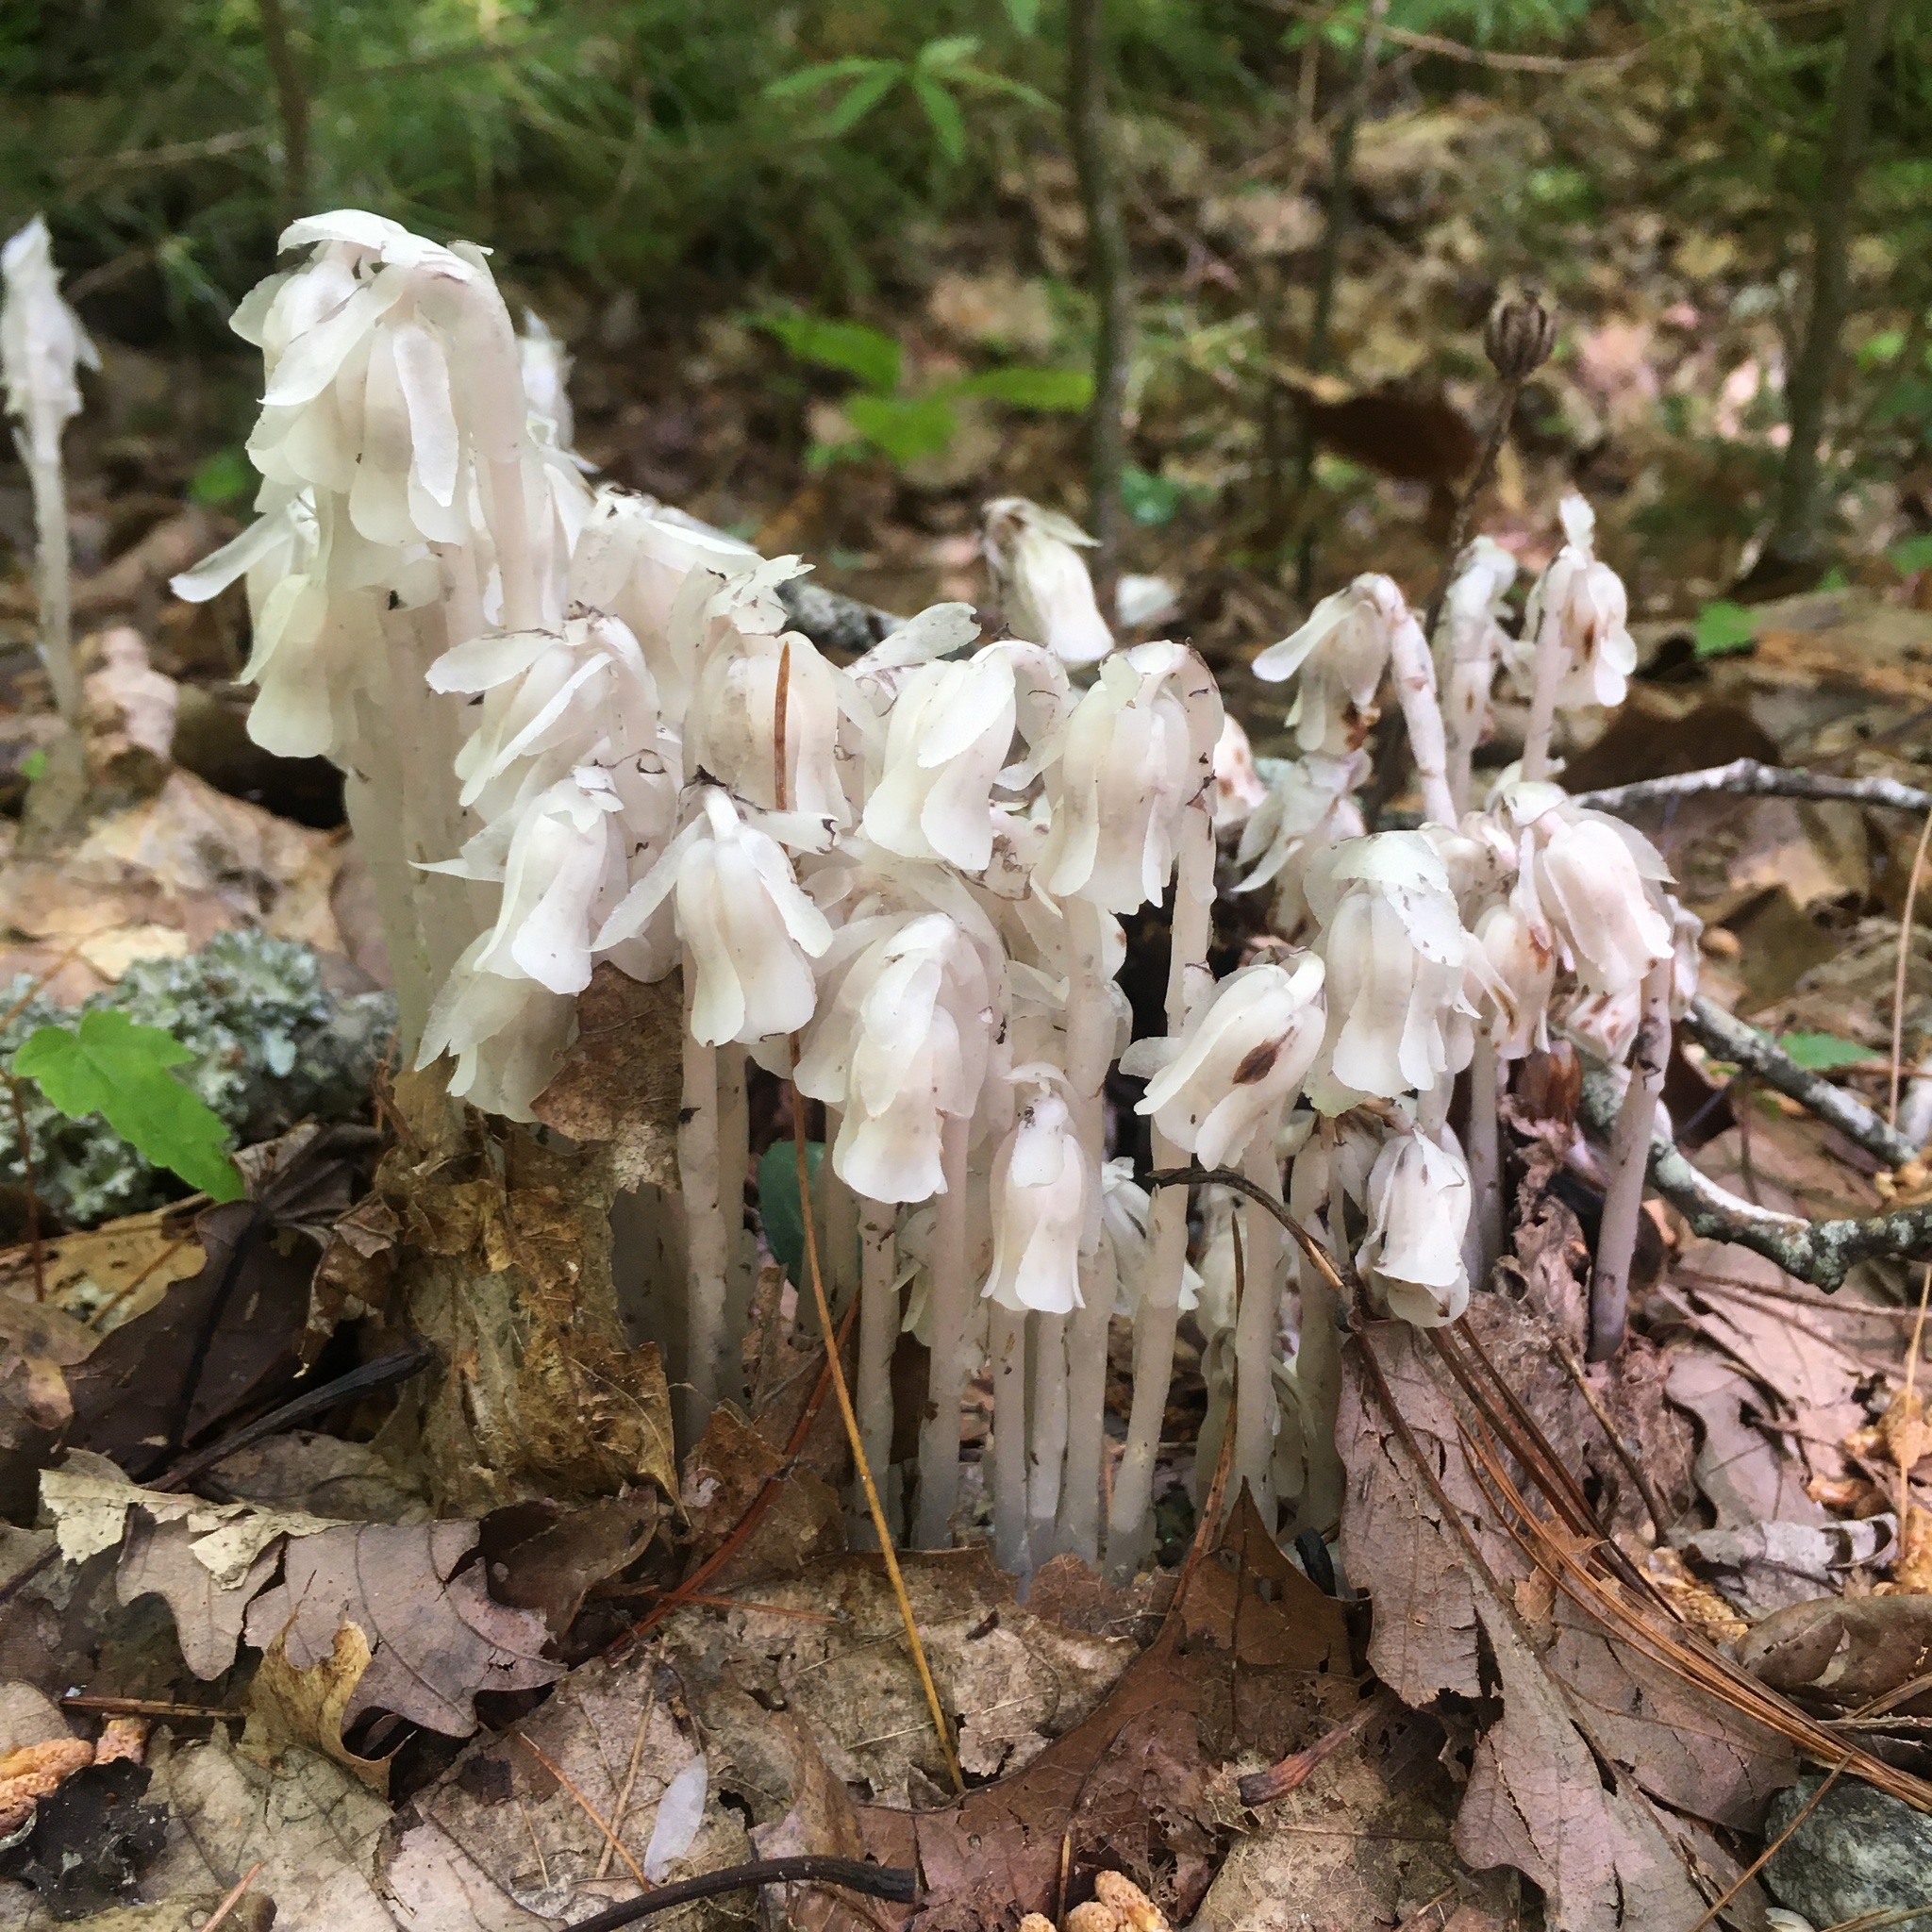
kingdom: Plantae
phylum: Tracheophyta
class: Magnoliopsida
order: Ericales
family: Ericaceae
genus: Monotropa
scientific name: Monotropa uniflora
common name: Convulsion root
